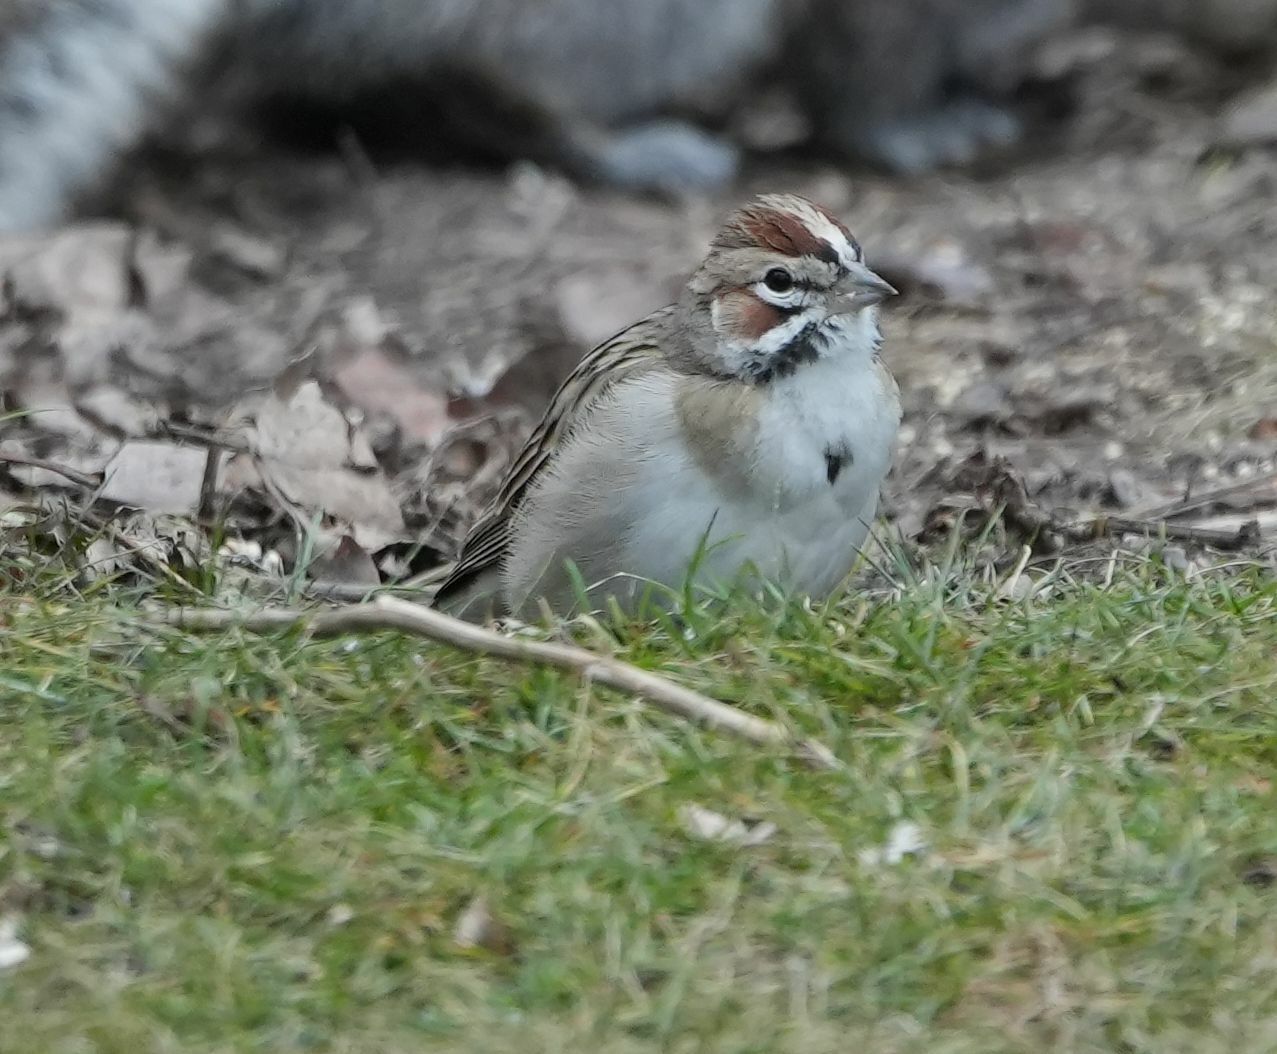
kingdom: Animalia
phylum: Chordata
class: Aves
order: Passeriformes
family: Passerellidae
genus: Chondestes
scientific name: Chondestes grammacus
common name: Lark sparrow
